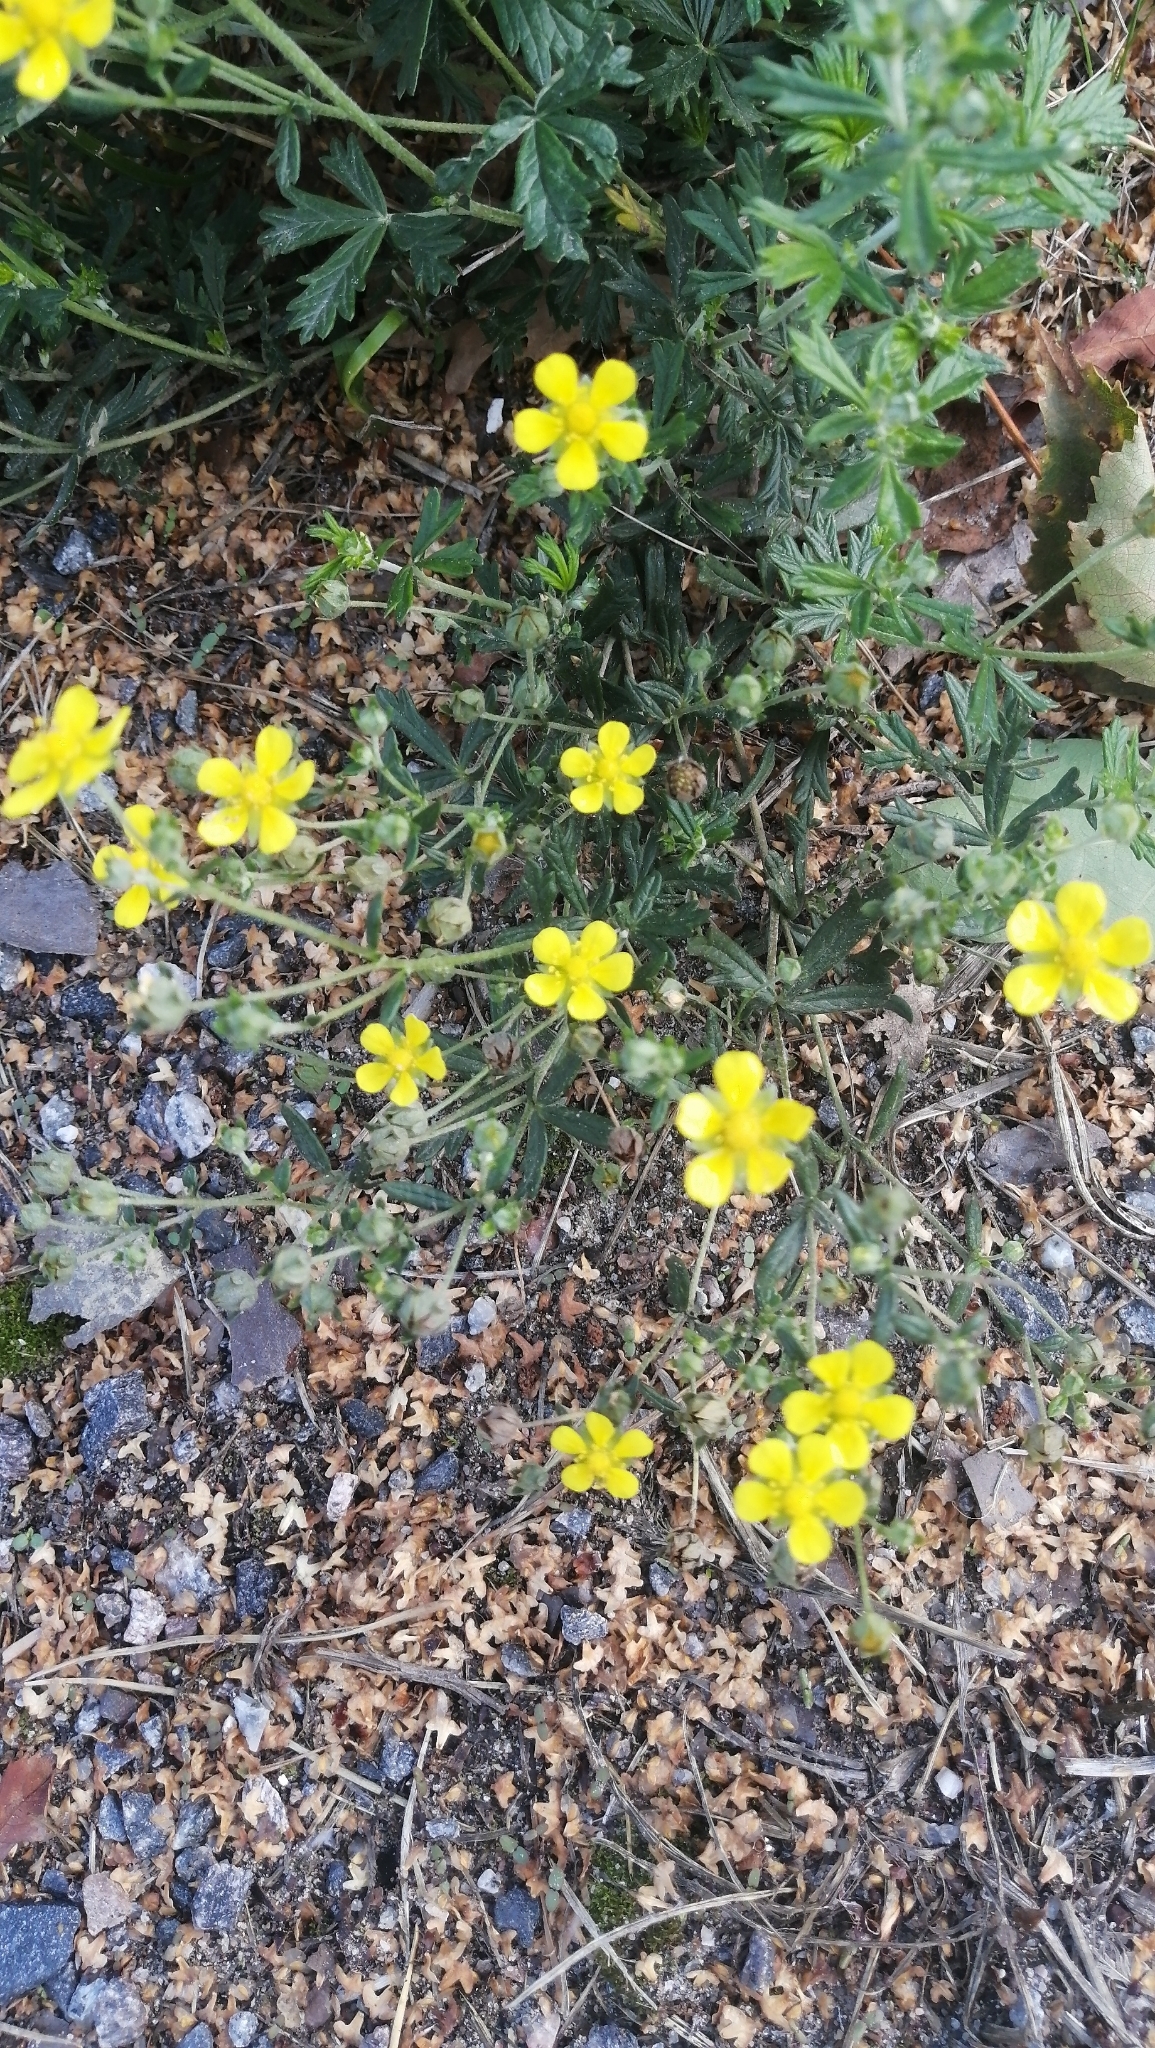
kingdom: Plantae
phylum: Tracheophyta
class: Magnoliopsida
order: Rosales
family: Rosaceae
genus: Potentilla
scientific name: Potentilla argentea
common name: Hoary cinquefoil
